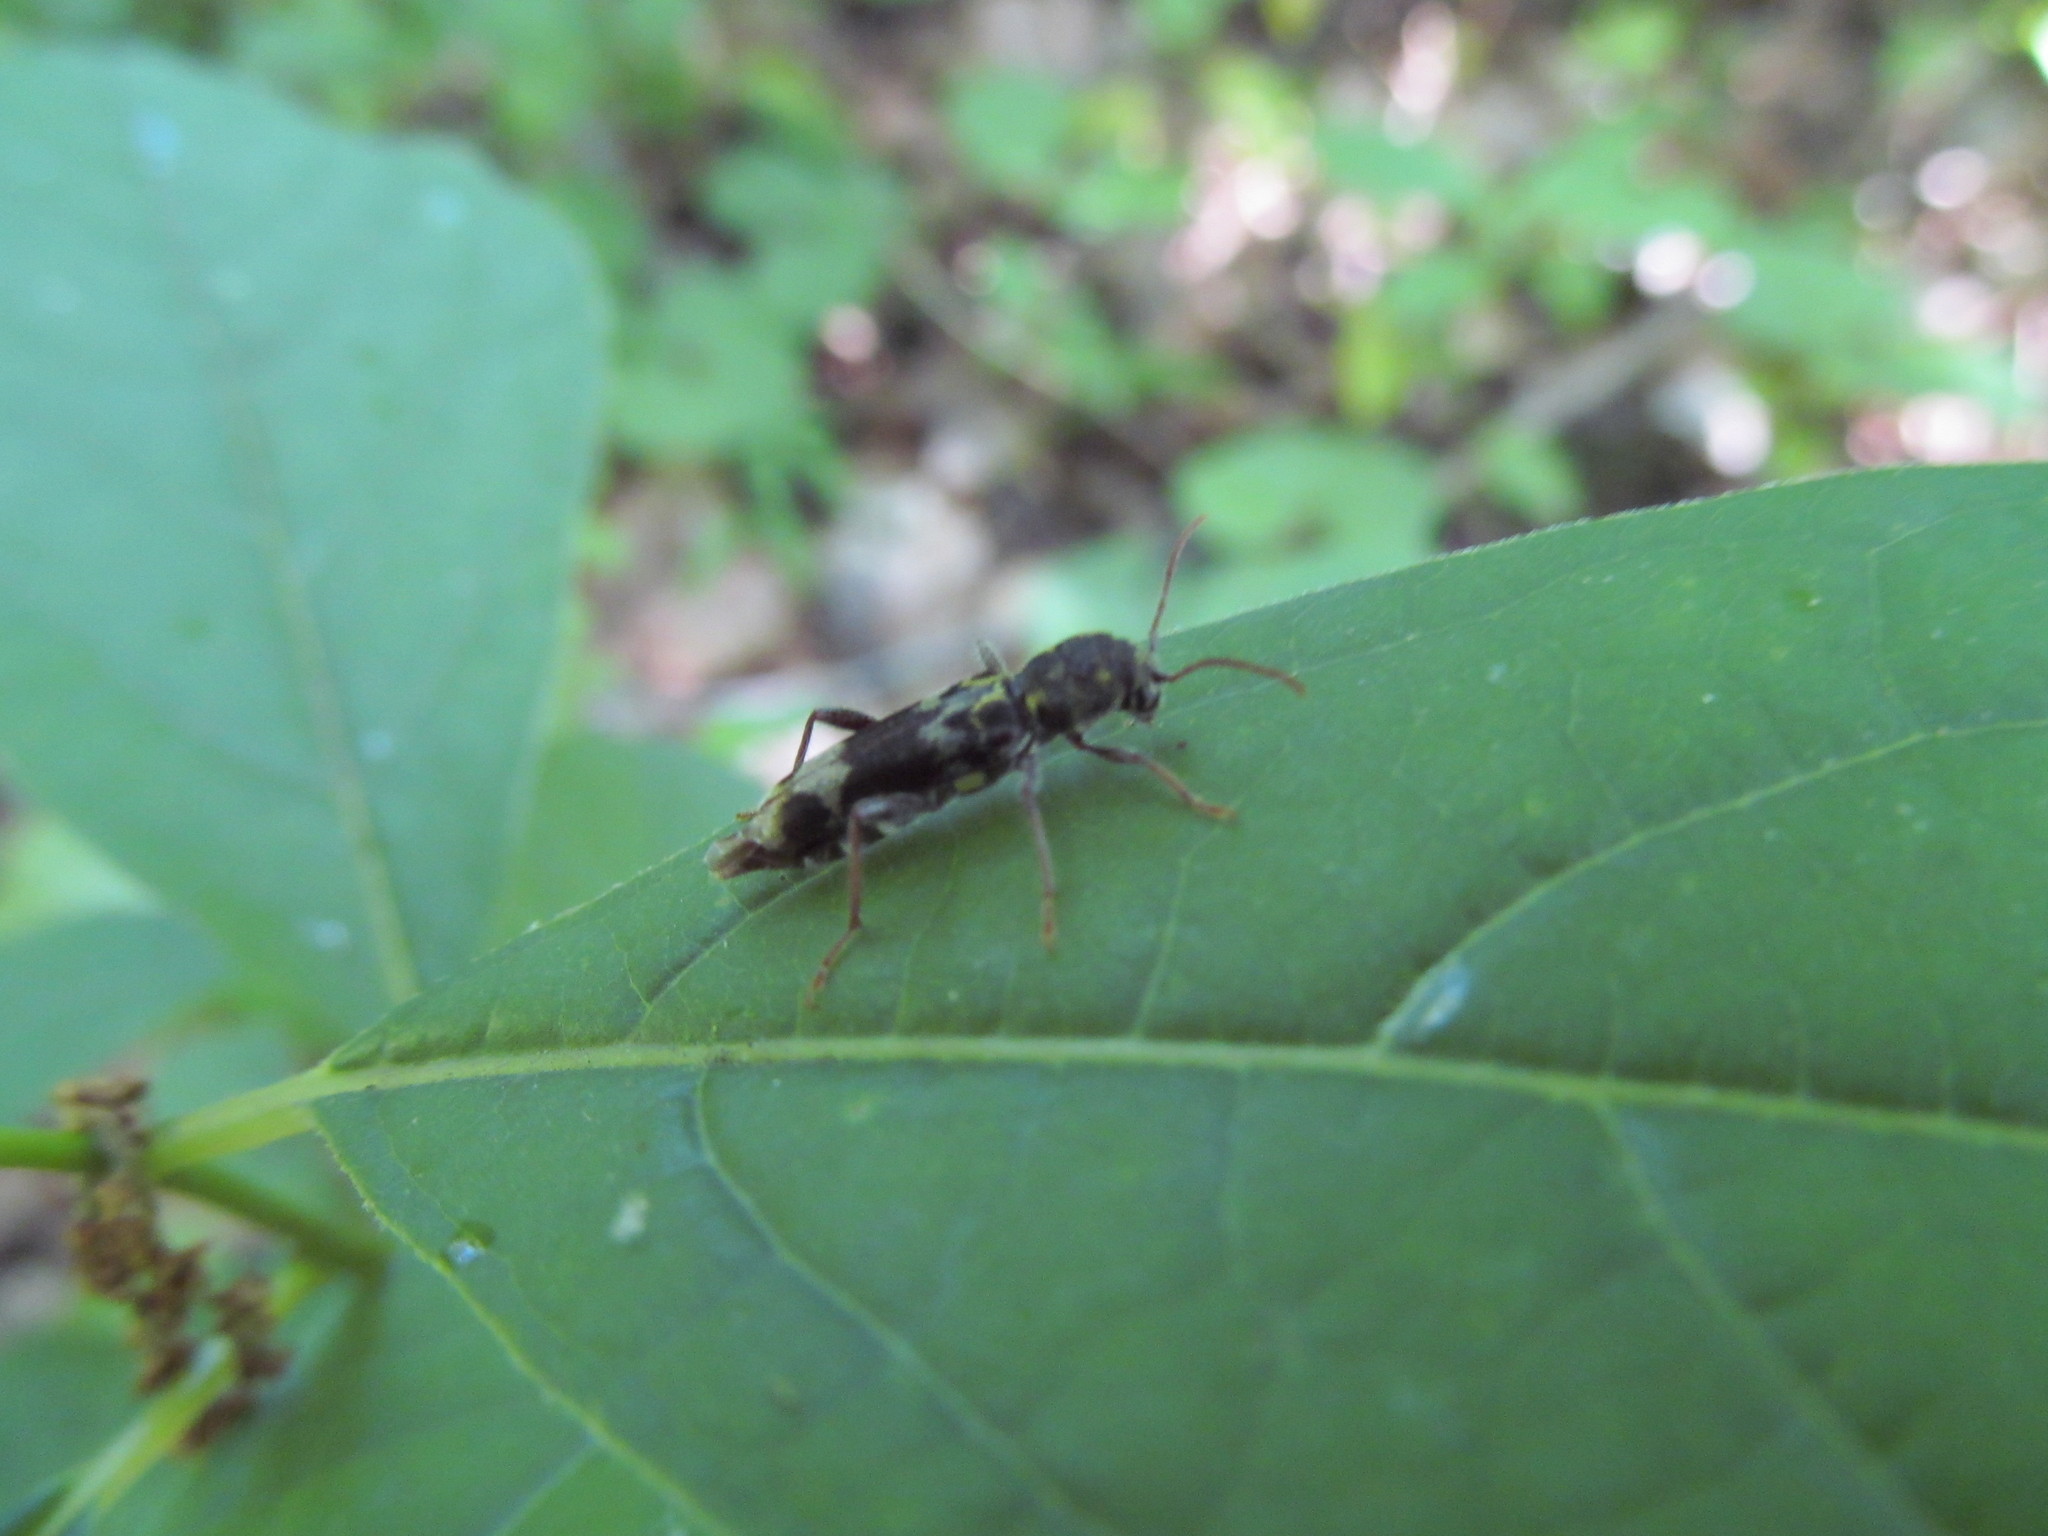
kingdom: Animalia
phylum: Arthropoda
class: Insecta
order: Coleoptera
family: Cerambycidae
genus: Xylotrechus
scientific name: Xylotrechus colonus
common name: Long-horned beetle
